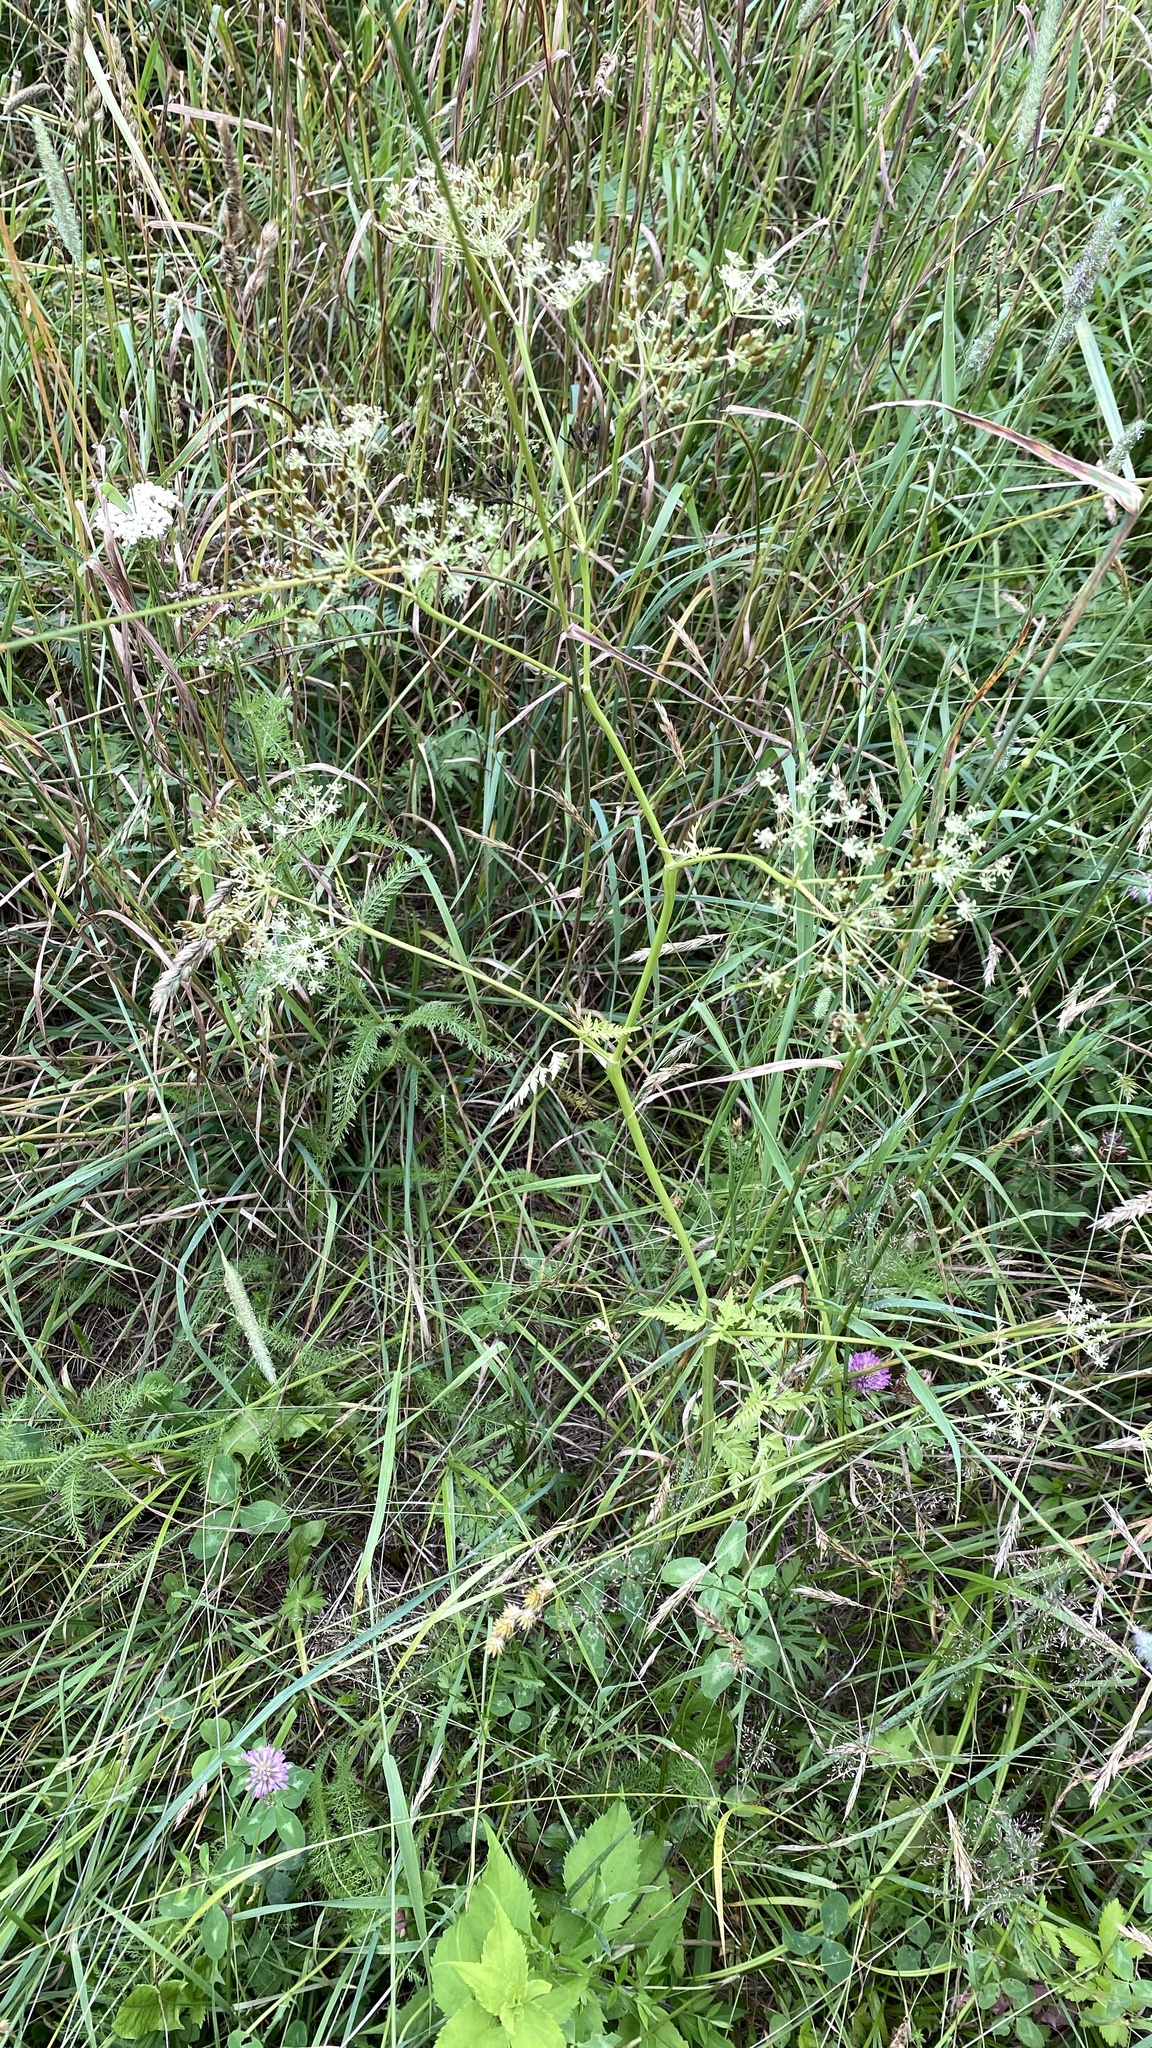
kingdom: Plantae
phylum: Tracheophyta
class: Magnoliopsida
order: Apiales
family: Apiaceae
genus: Anthriscus
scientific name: Anthriscus sylvestris
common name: Cow parsley
